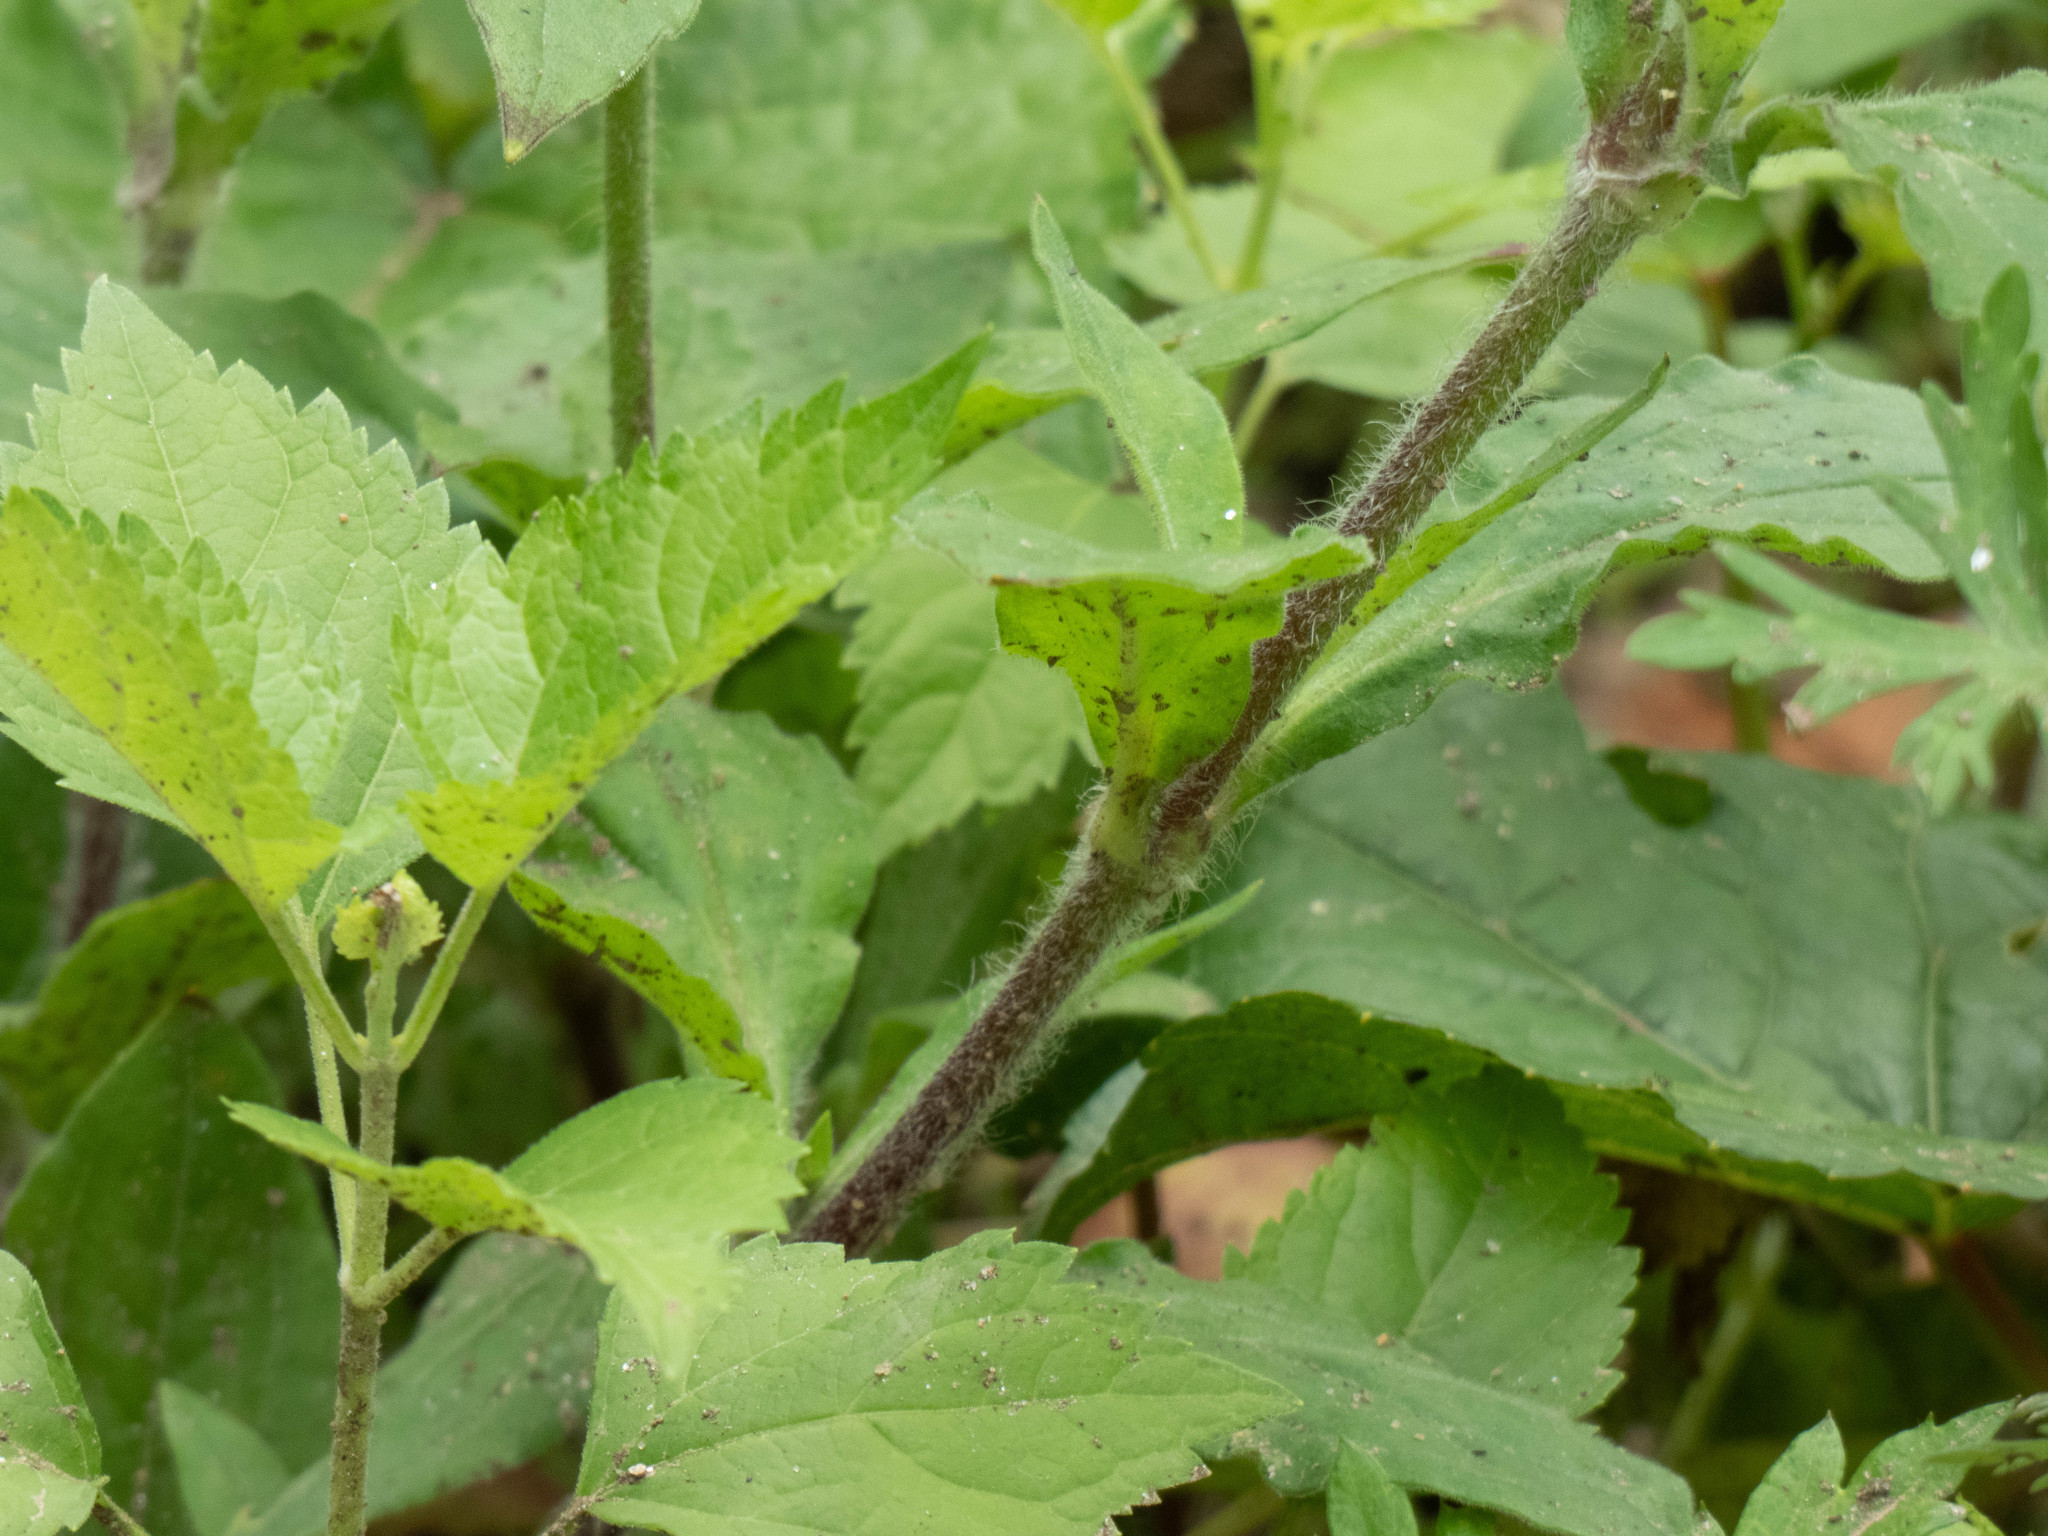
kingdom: Plantae
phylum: Tracheophyta
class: Magnoliopsida
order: Caryophyllales
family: Caryophyllaceae
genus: Silene
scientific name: Silene latifolia
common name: White campion
